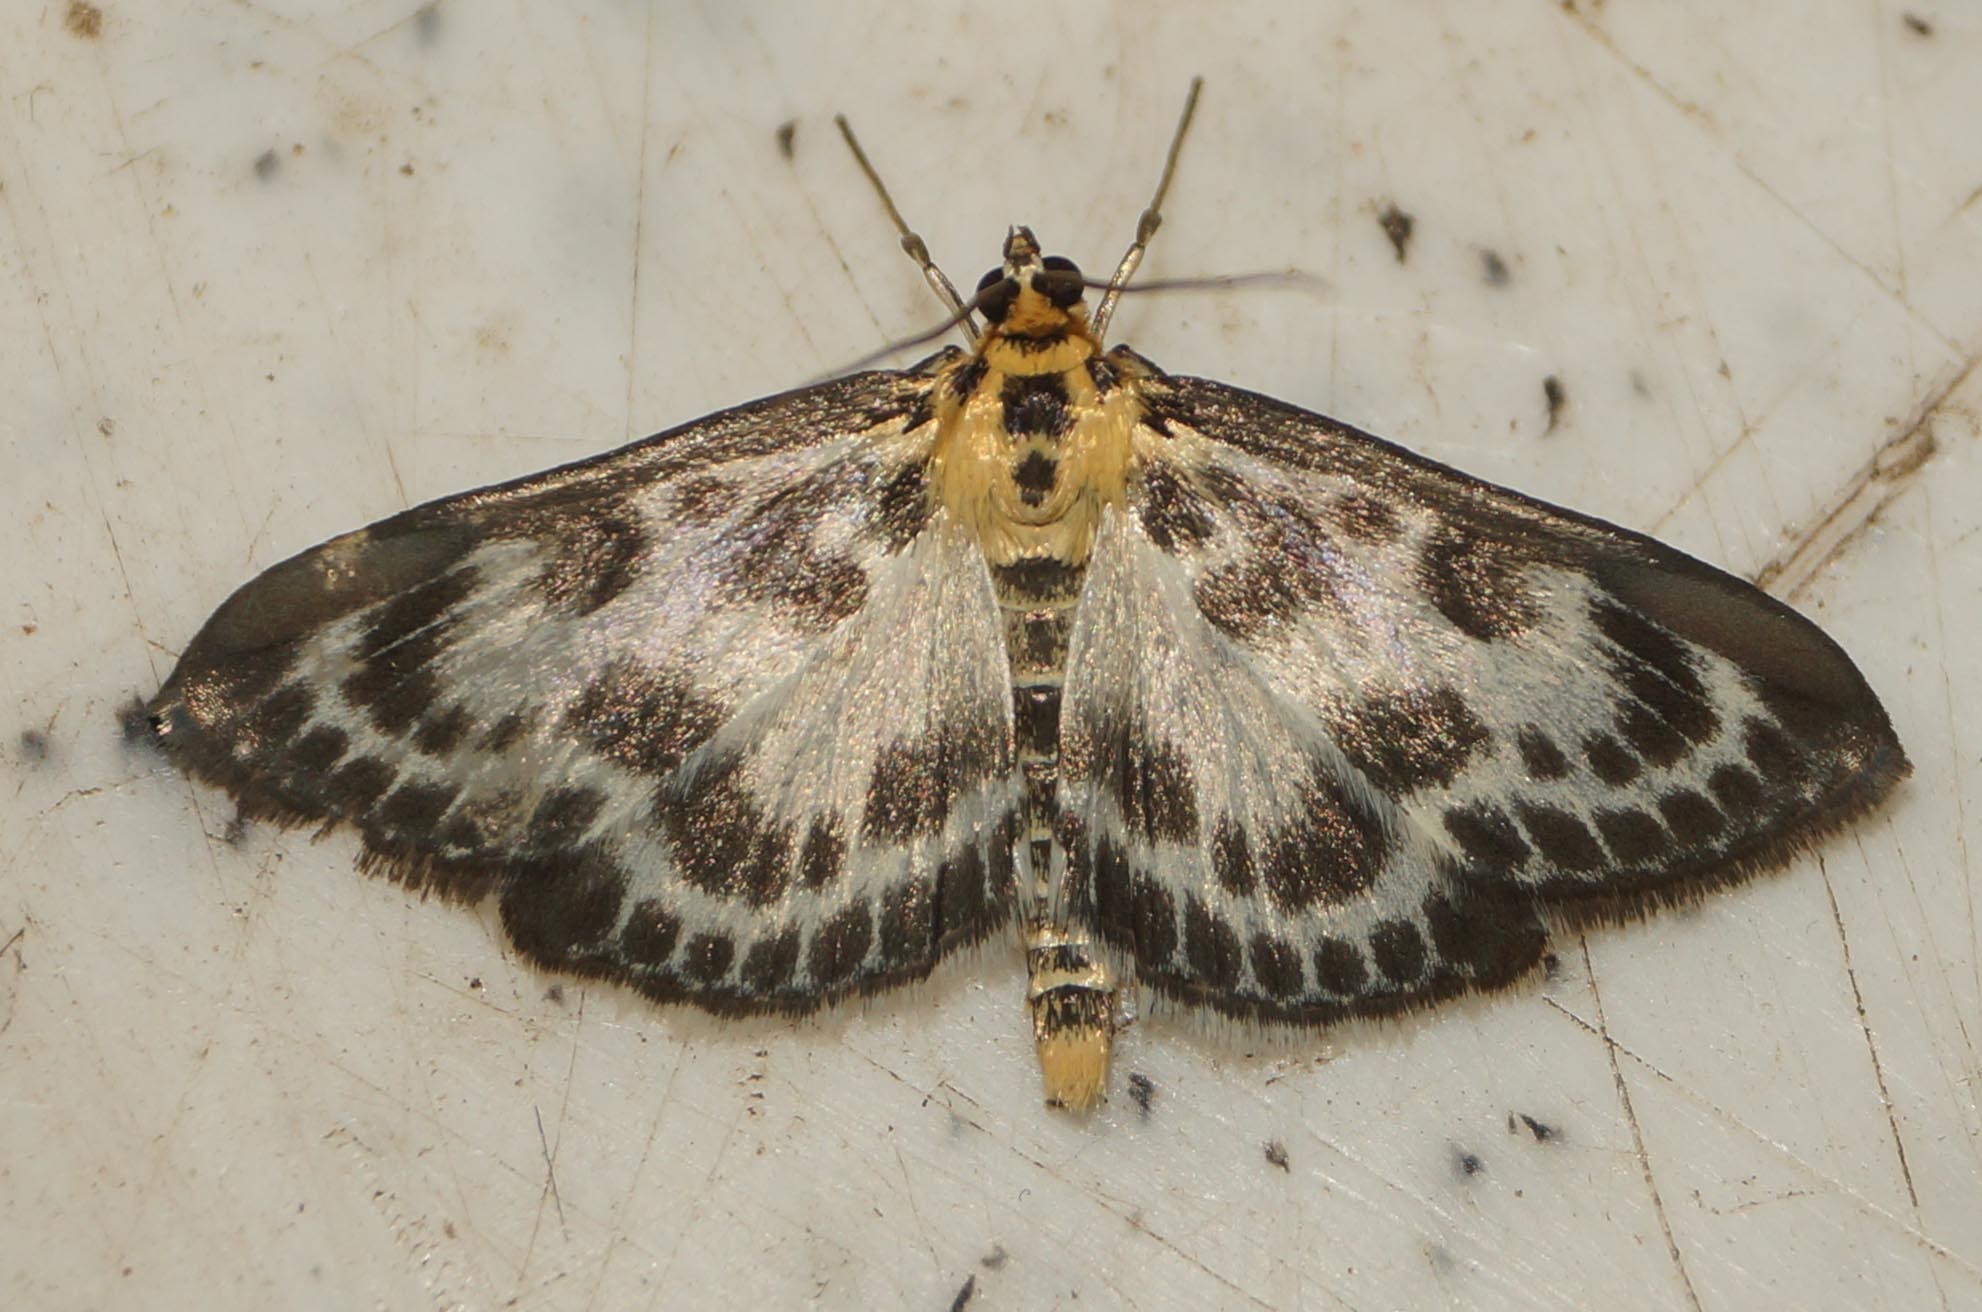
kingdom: Animalia
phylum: Arthropoda
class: Insecta
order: Lepidoptera
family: Crambidae
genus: Anania
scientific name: Anania hortulata
